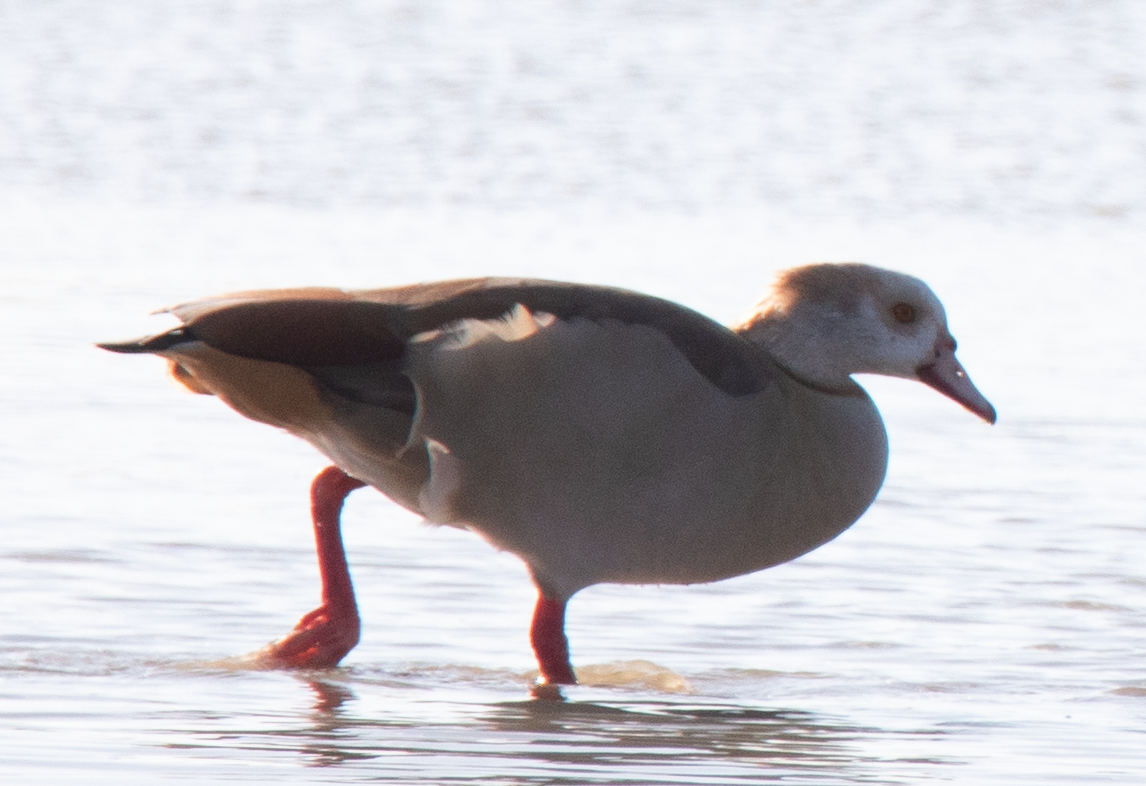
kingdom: Animalia
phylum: Chordata
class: Aves
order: Anseriformes
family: Anatidae
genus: Alopochen
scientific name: Alopochen aegyptiaca
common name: Egyptian goose
